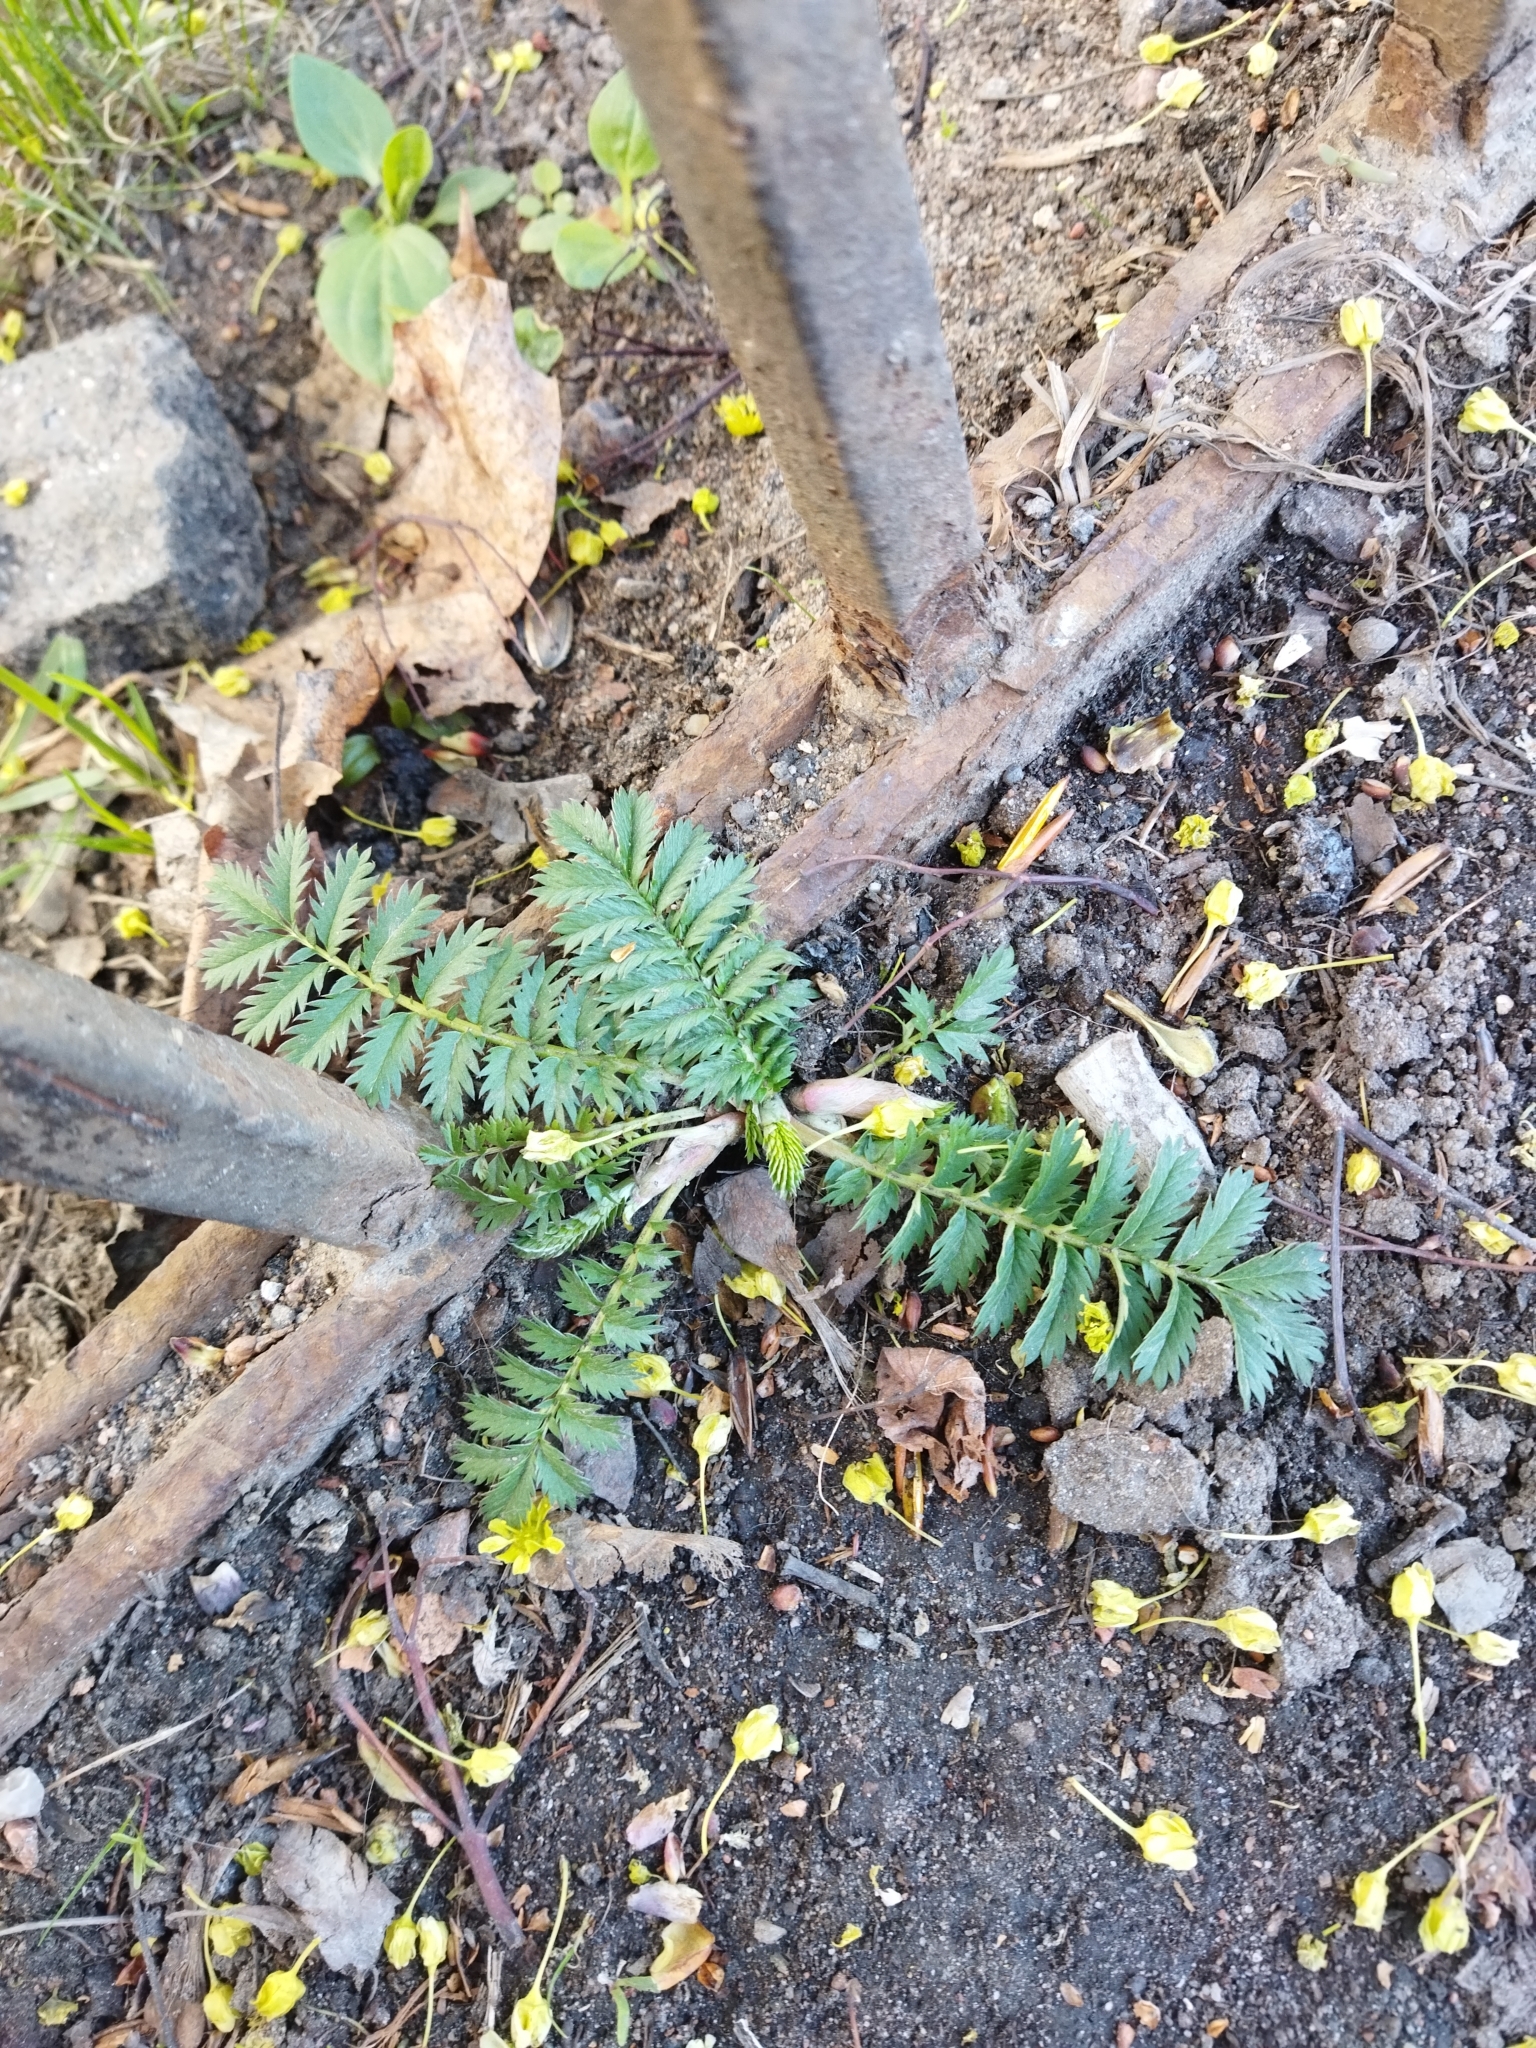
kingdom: Plantae
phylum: Tracheophyta
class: Magnoliopsida
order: Rosales
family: Rosaceae
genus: Argentina
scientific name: Argentina anserina
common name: Common silverweed
